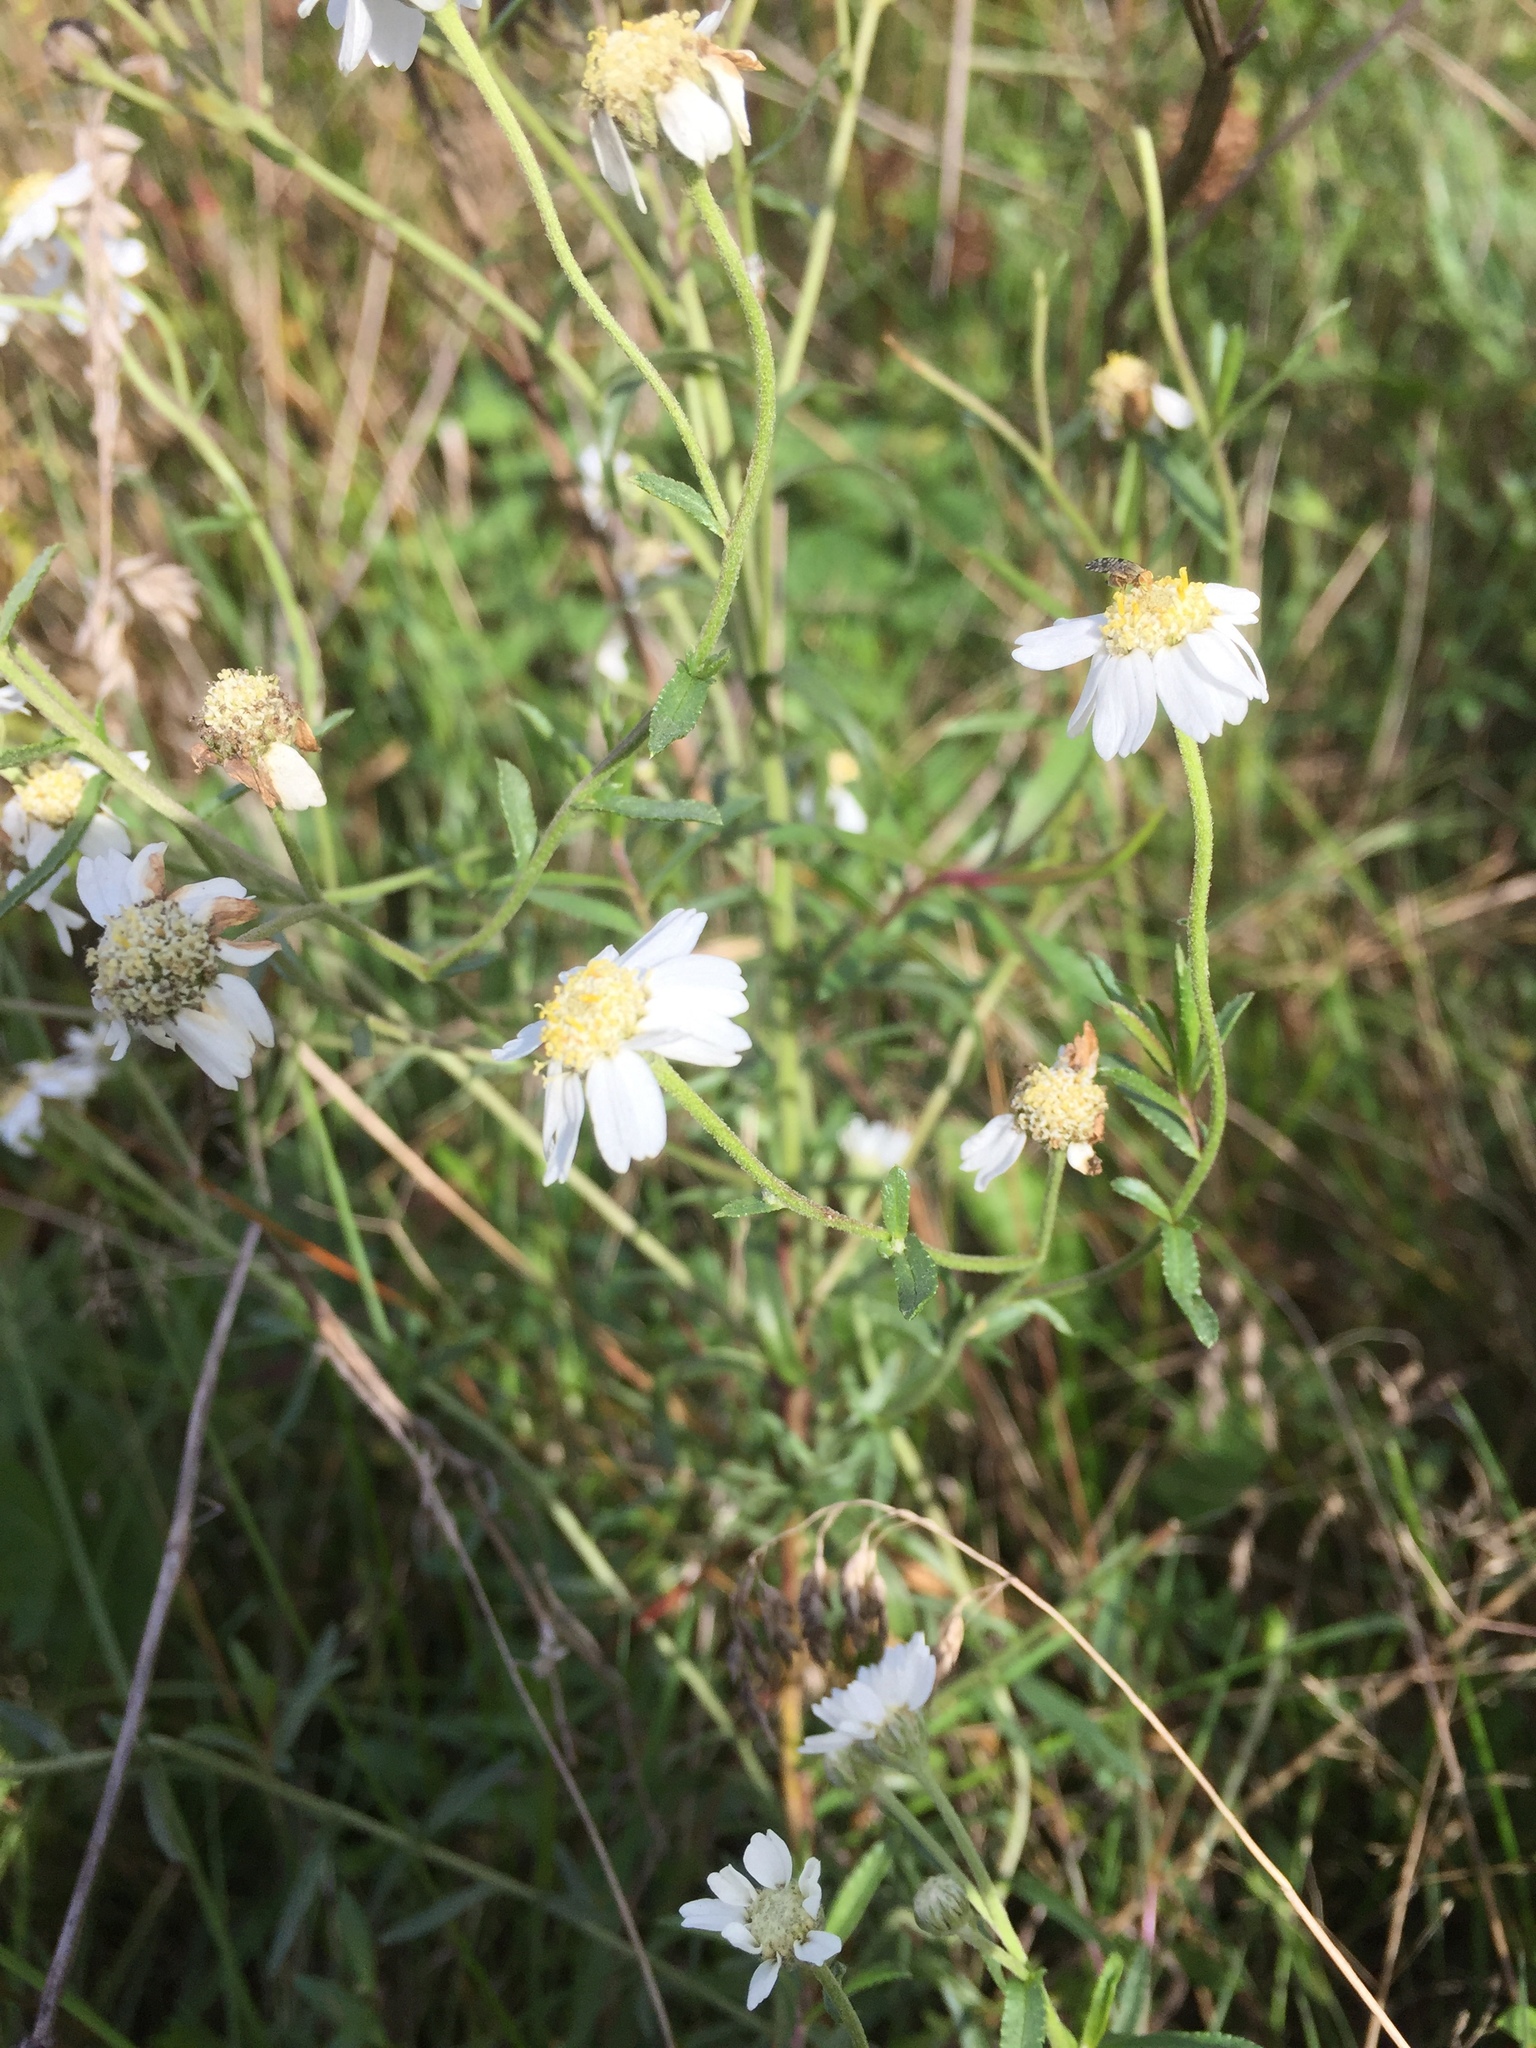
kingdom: Plantae
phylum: Tracheophyta
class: Magnoliopsida
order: Asterales
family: Asteraceae
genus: Achillea
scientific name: Achillea ptarmica
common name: Sneezeweed
